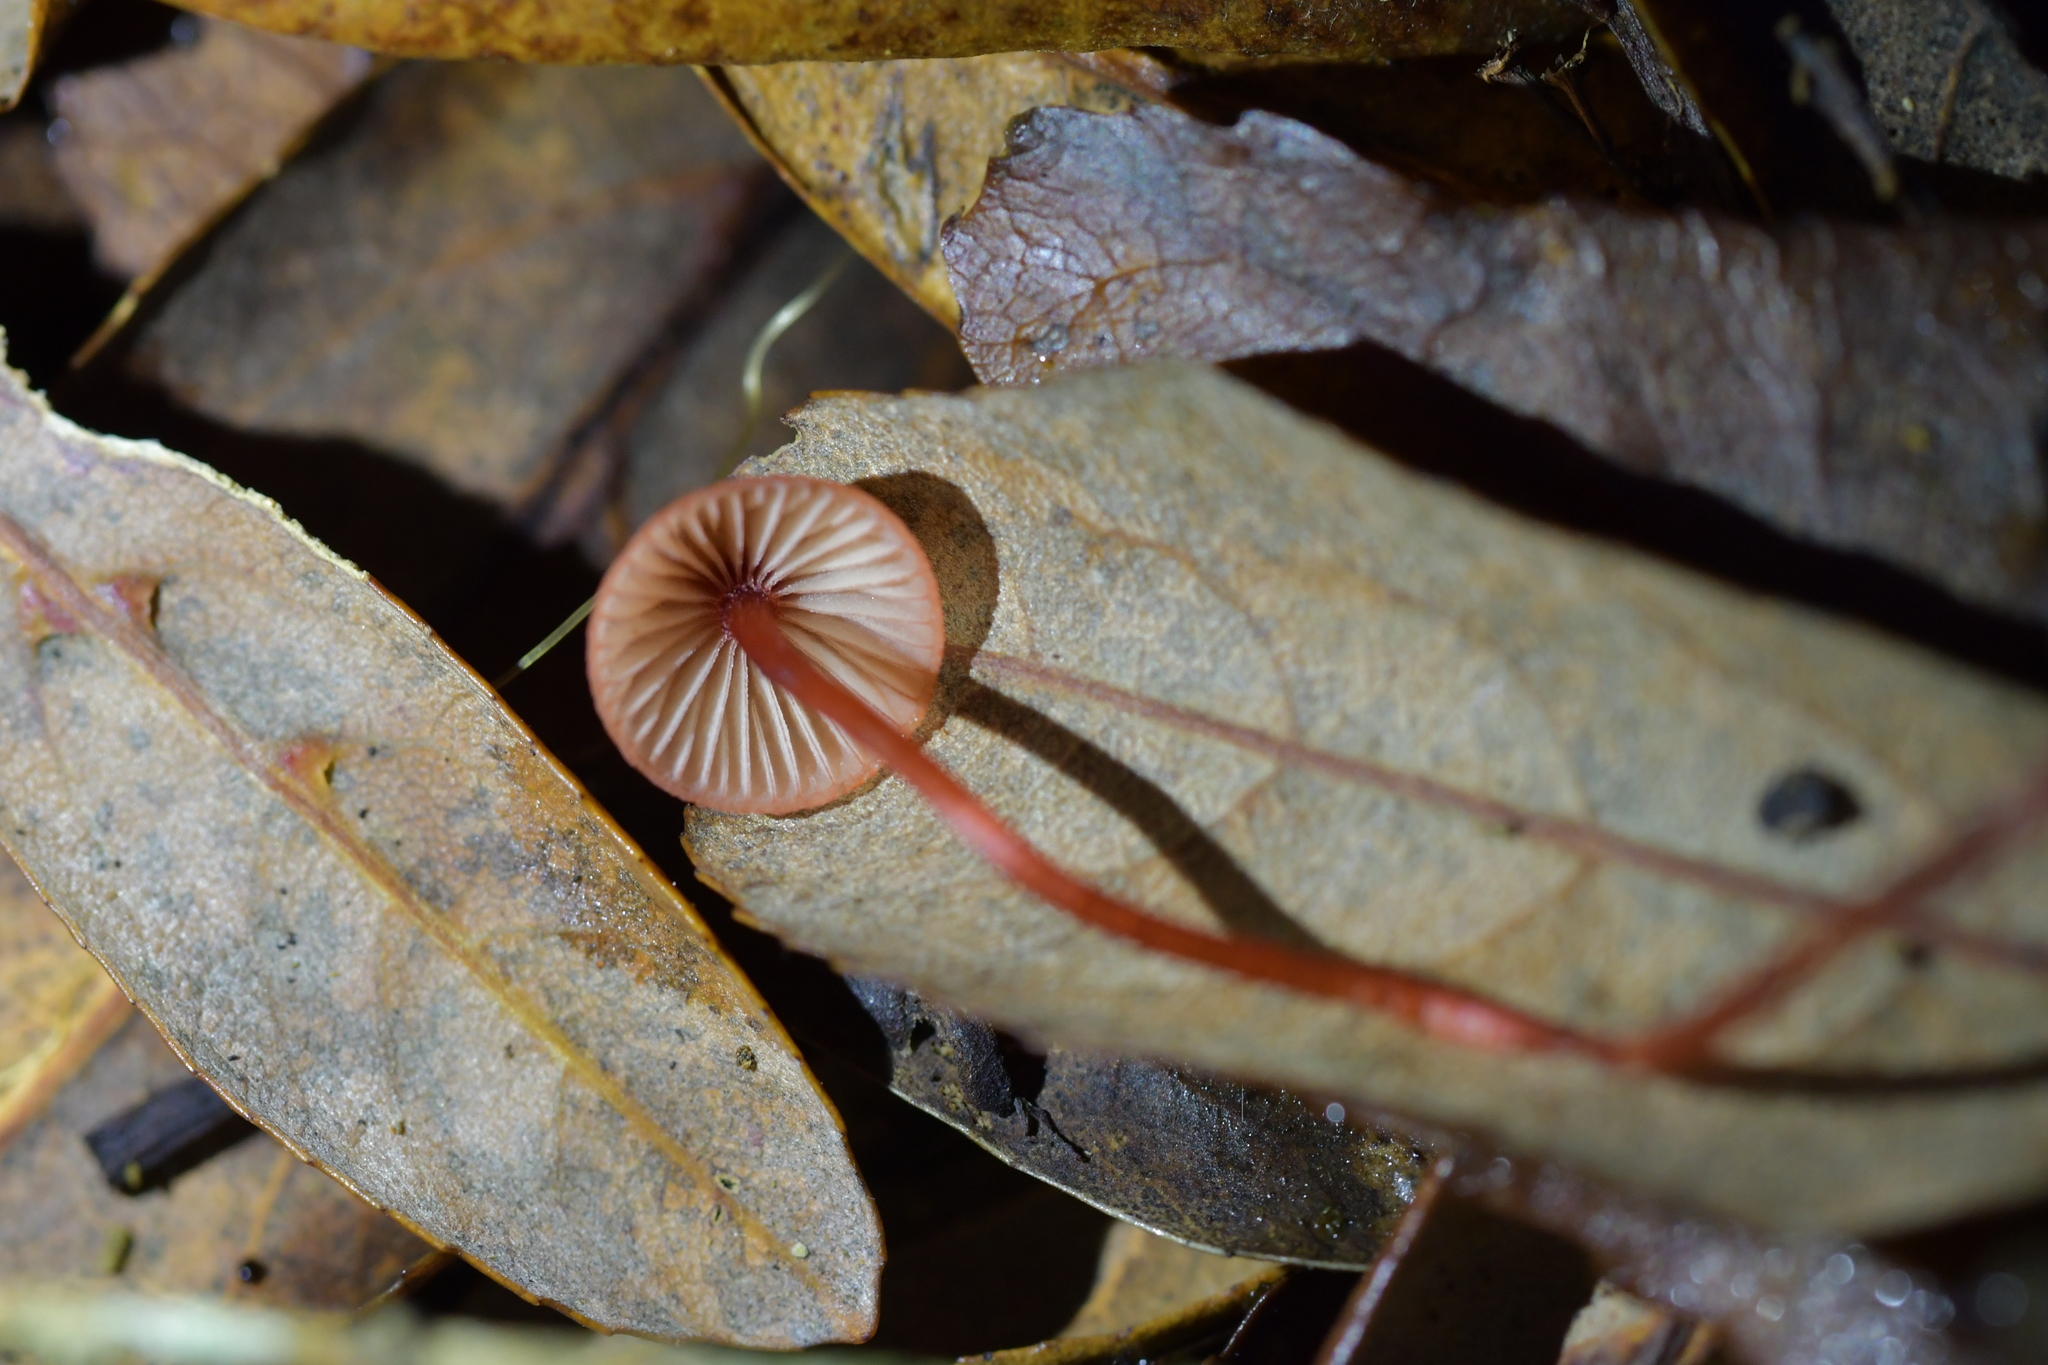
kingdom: Fungi
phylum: Basidiomycota
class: Agaricomycetes
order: Agaricales
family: Mycenaceae
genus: Mycena
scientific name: Mycena ura
